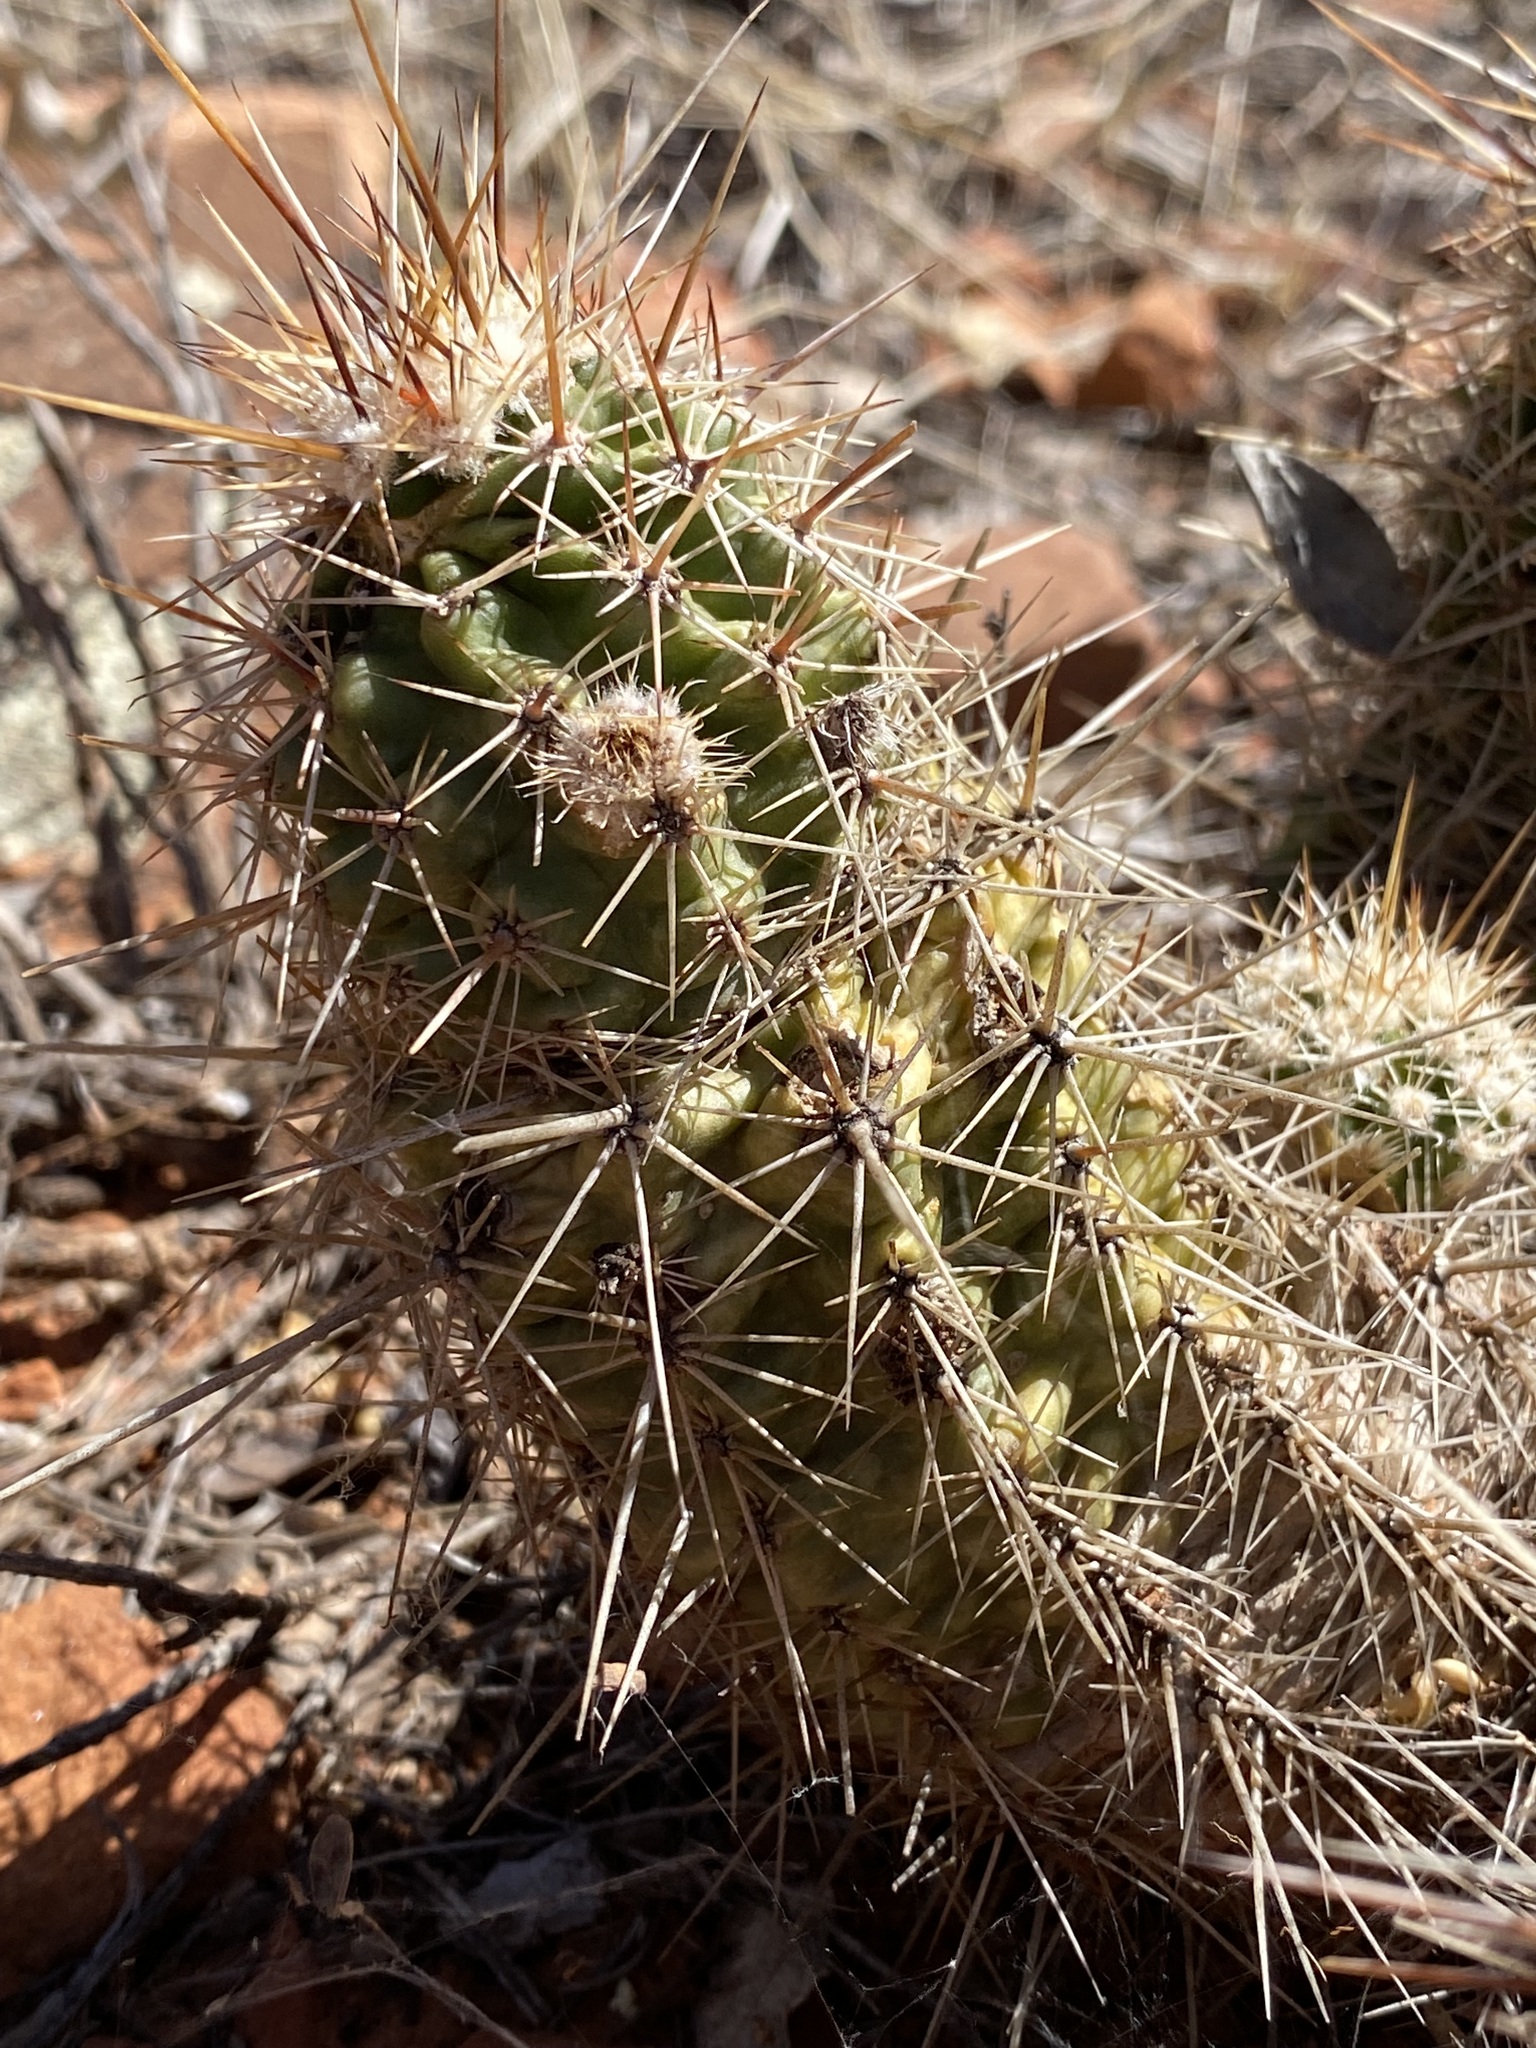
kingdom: Plantae
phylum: Tracheophyta
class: Magnoliopsida
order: Caryophyllales
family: Cactaceae
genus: Echinocereus
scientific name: Echinocereus fasciculatus
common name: Bundle hedgehog
